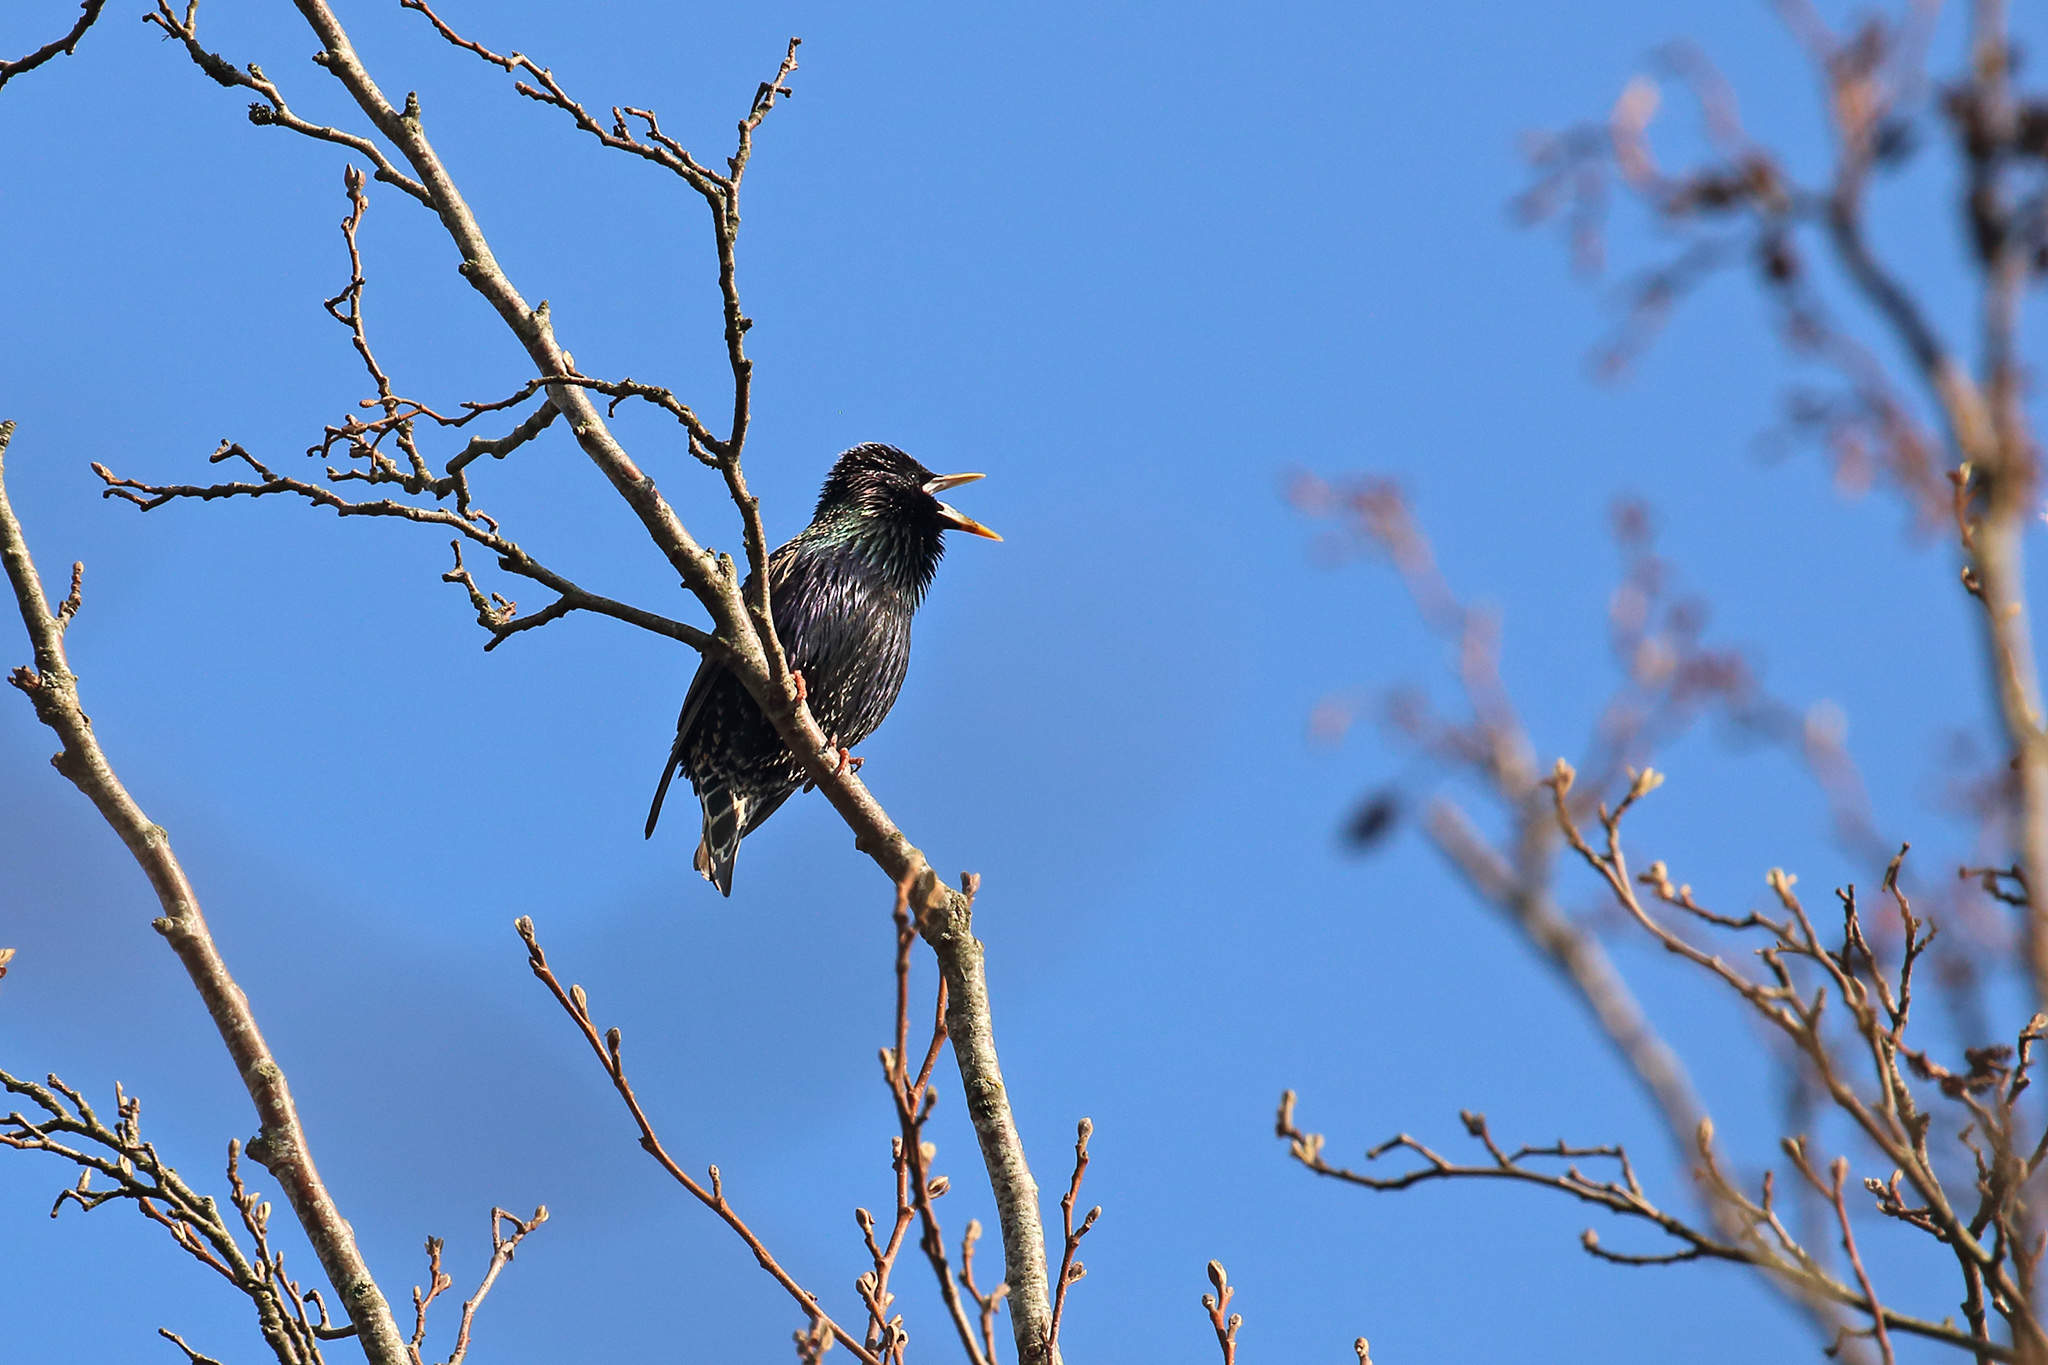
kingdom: Animalia
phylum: Chordata
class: Aves
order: Passeriformes
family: Sturnidae
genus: Sturnus
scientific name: Sturnus vulgaris
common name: Common starling
